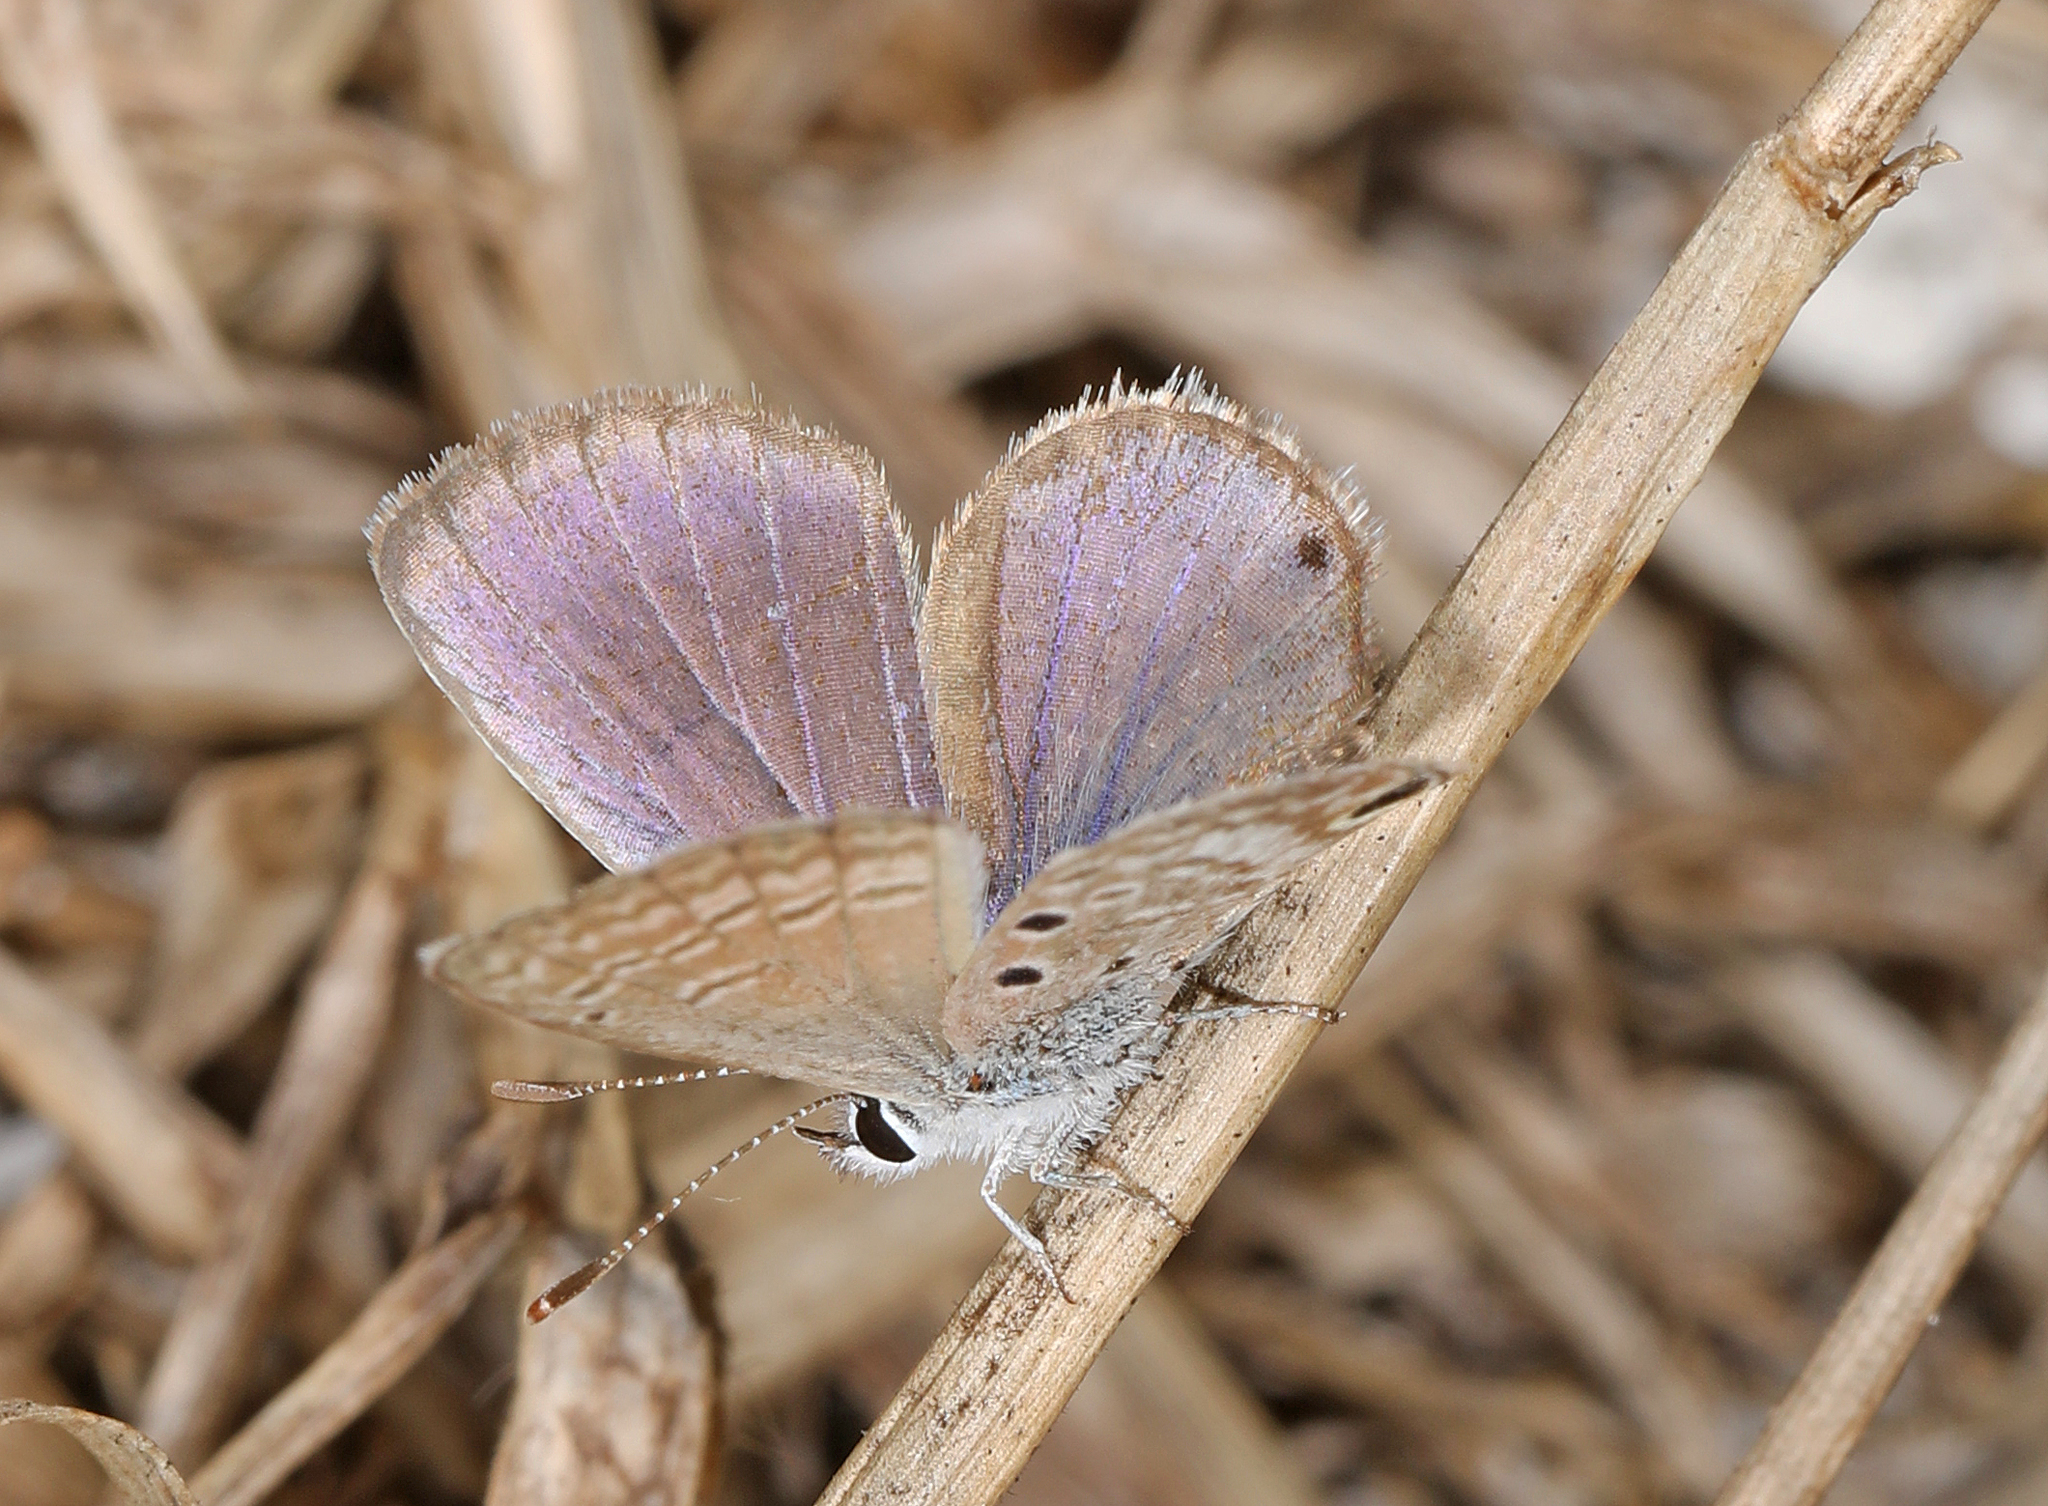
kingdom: Animalia
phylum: Arthropoda
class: Insecta
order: Lepidoptera
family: Lycaenidae
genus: Hemiargus
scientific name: Hemiargus ceraunus
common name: Ceraunus blue
